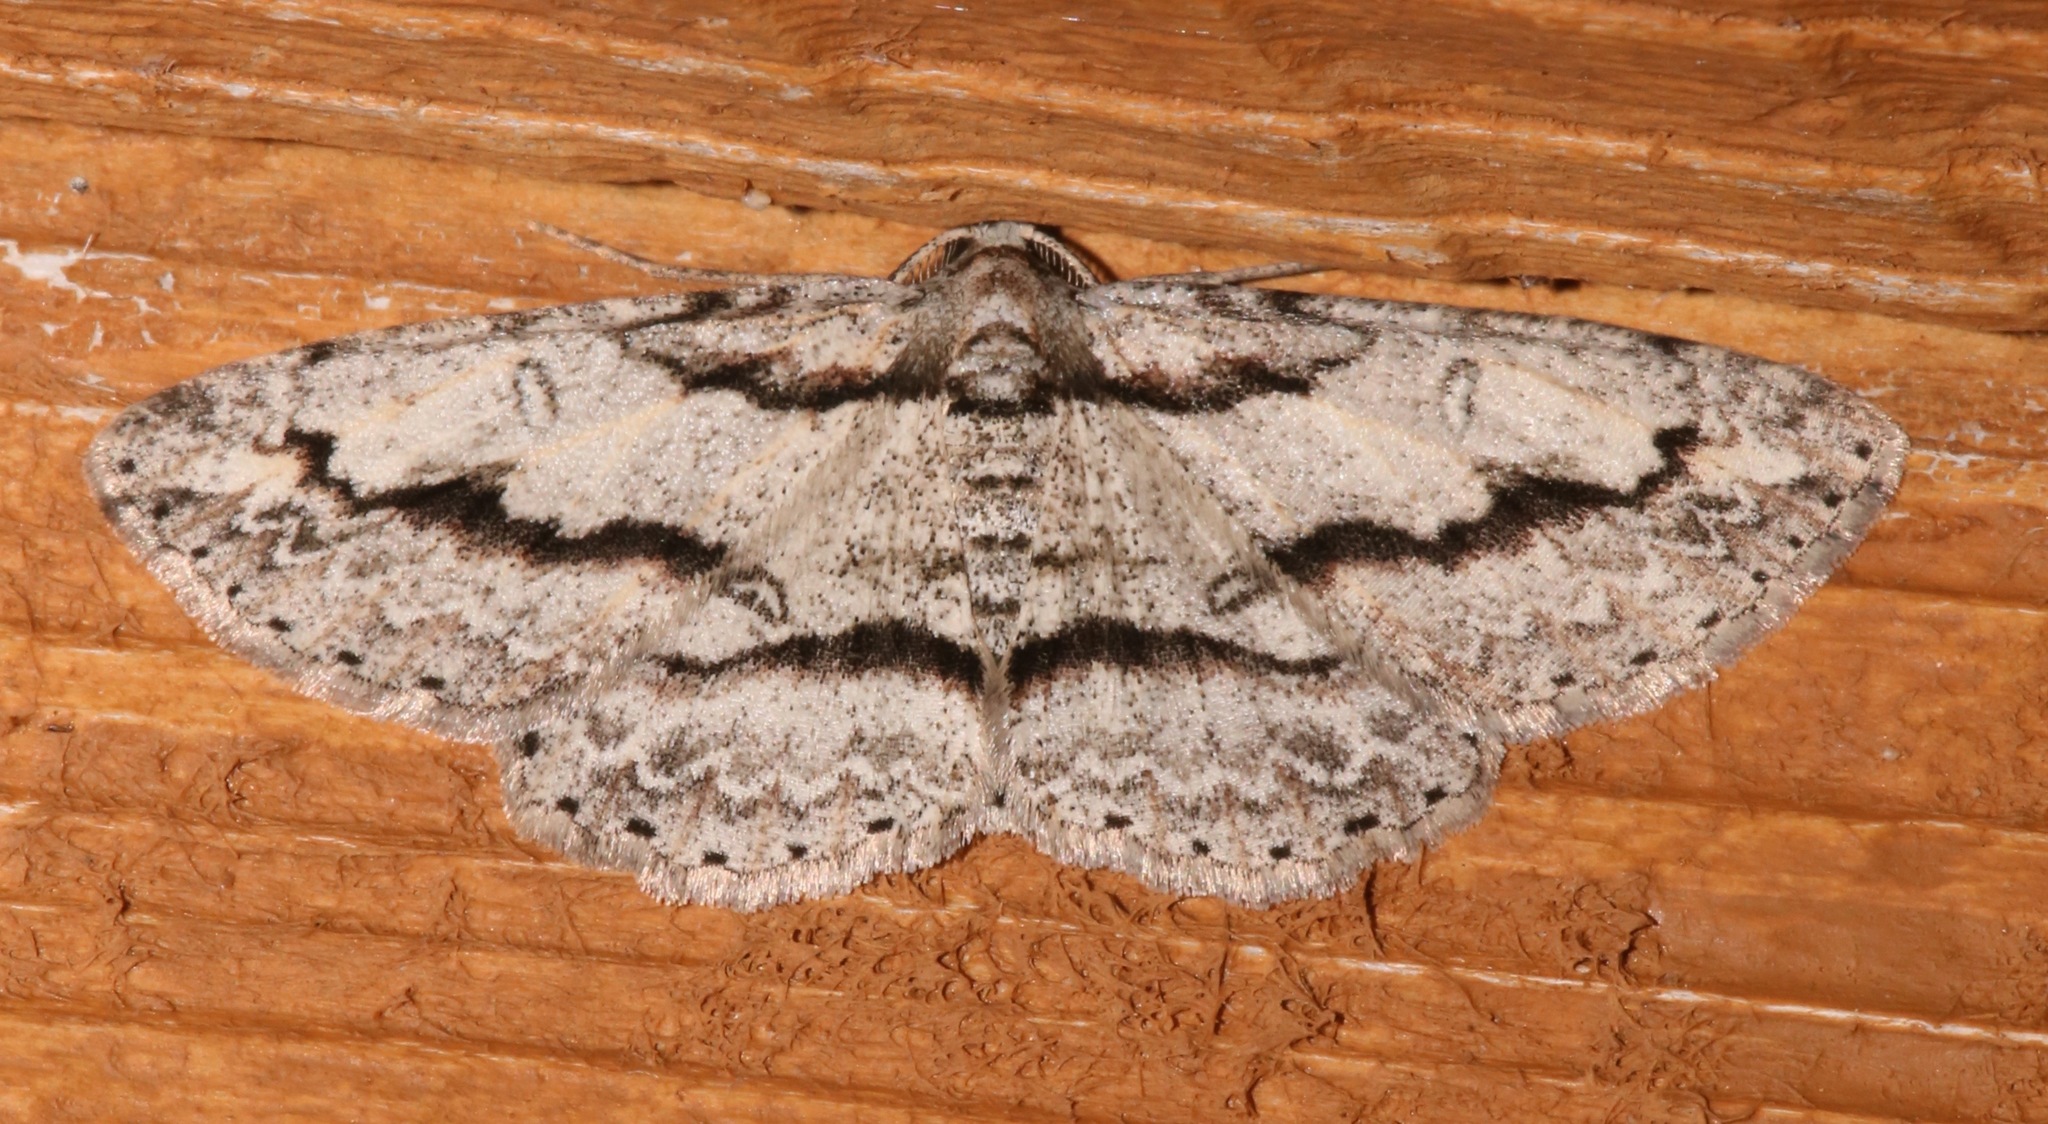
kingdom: Animalia
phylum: Arthropoda
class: Insecta
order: Lepidoptera
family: Geometridae
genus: Iridopsis
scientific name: Iridopsis pergracilis
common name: Cypress looper
